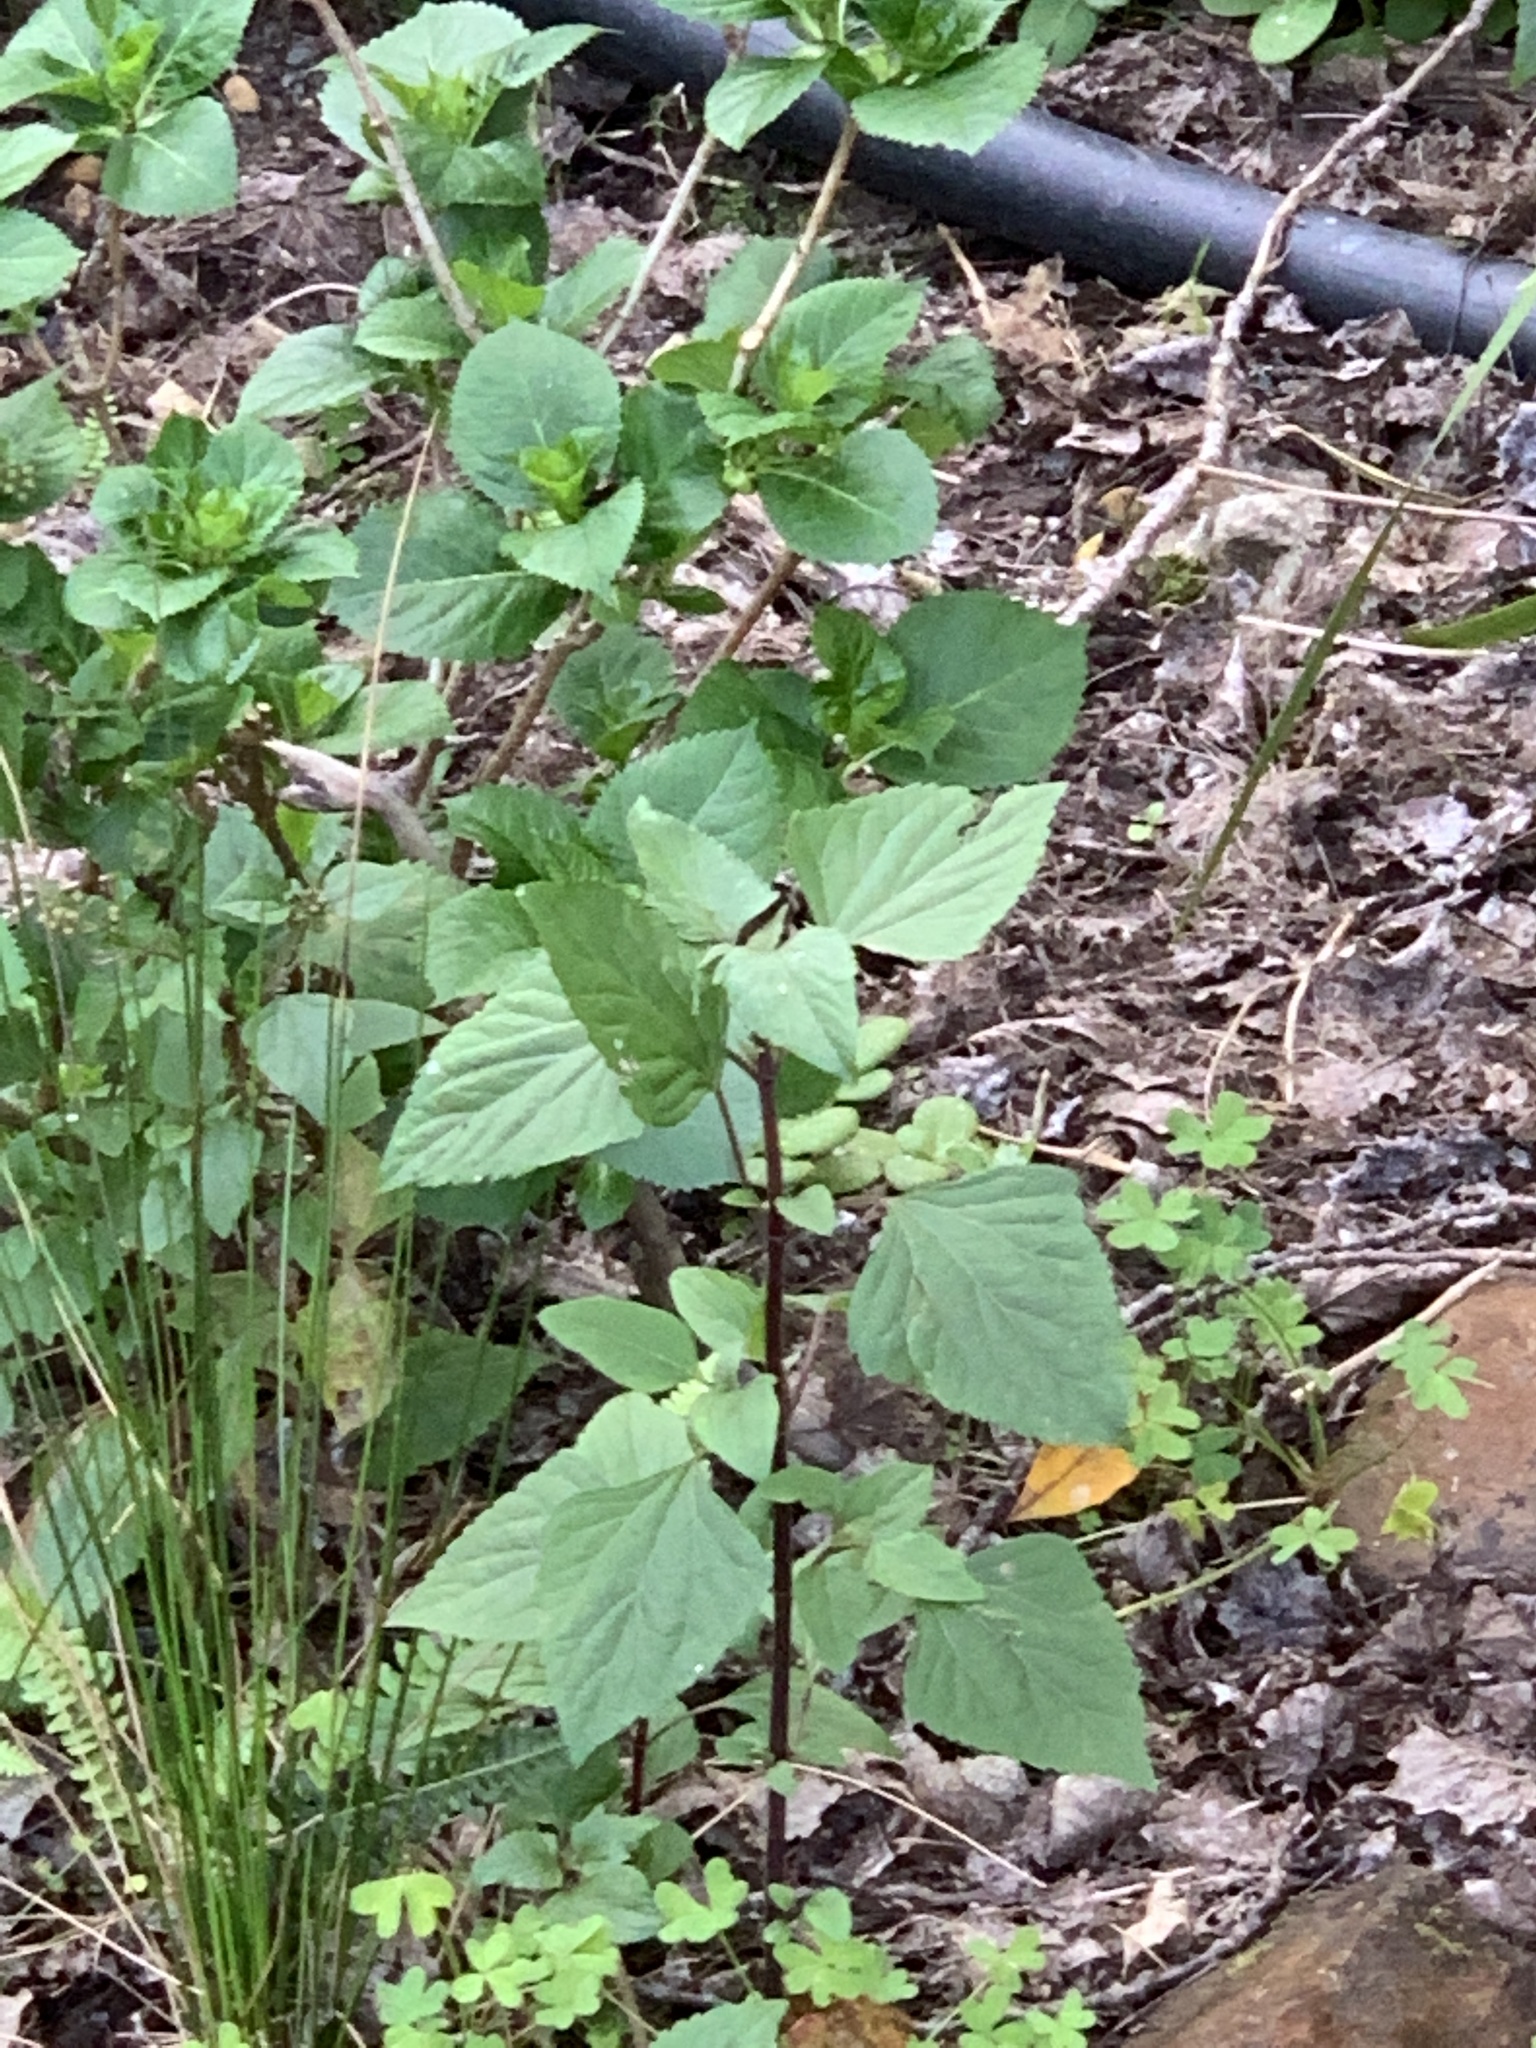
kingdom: Plantae
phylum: Tracheophyta
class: Magnoliopsida
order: Asterales
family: Asteraceae
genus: Ageratina
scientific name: Ageratina adenophora
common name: Sticky snakeroot
